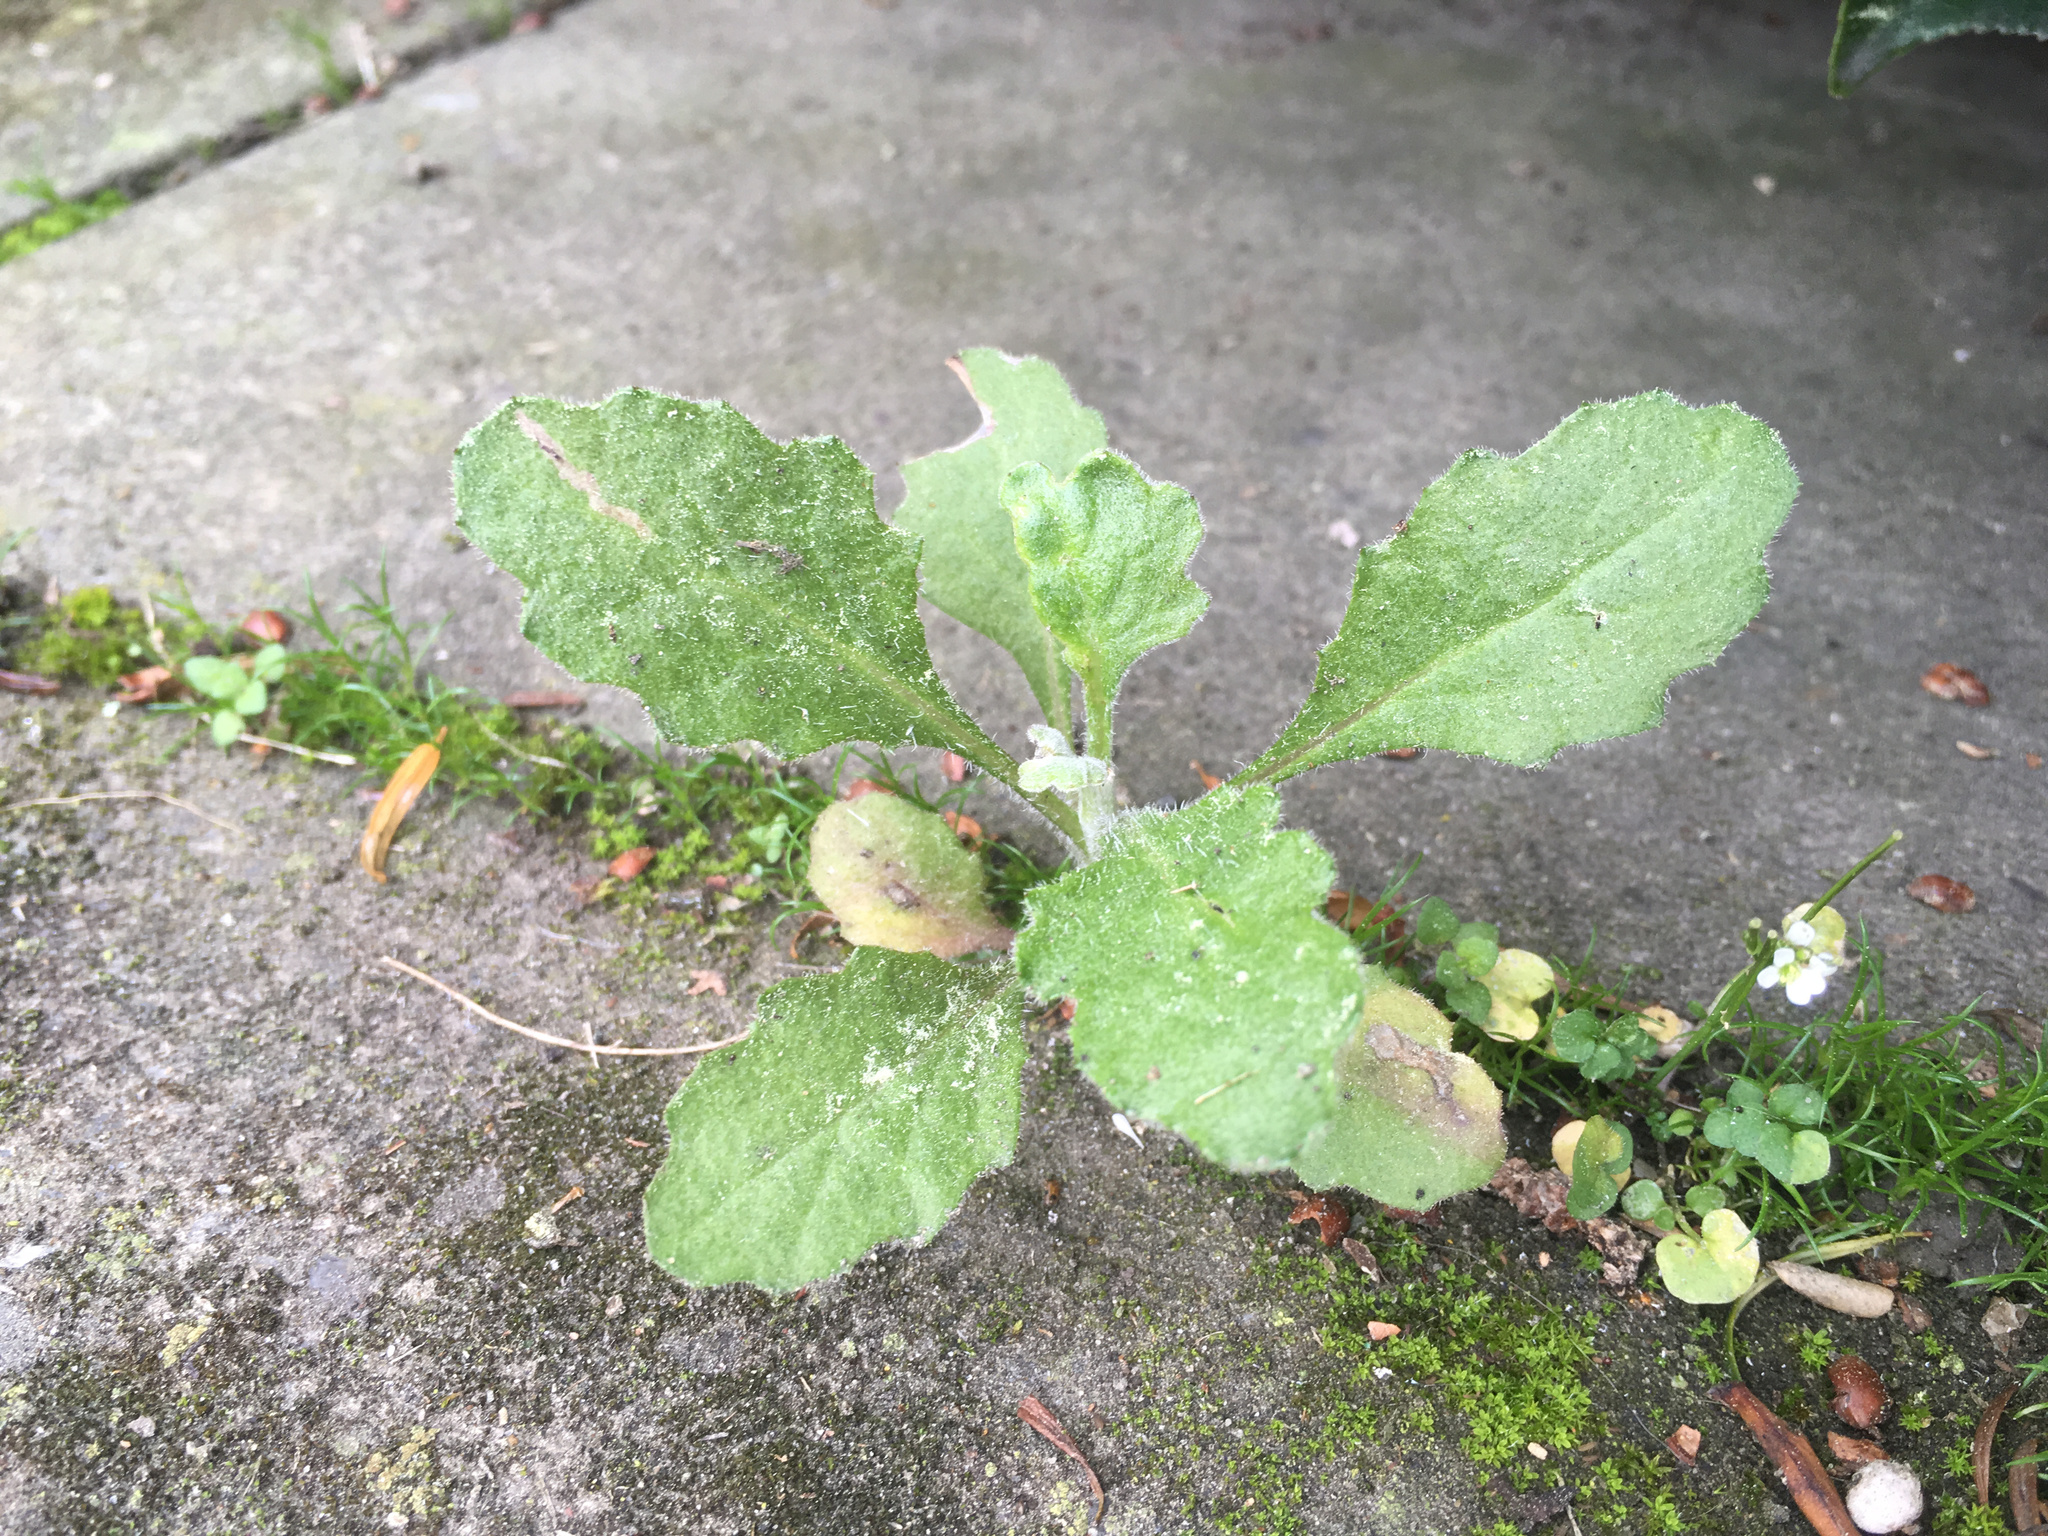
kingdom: Plantae
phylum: Tracheophyta
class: Magnoliopsida
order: Asterales
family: Asteraceae
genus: Senecio
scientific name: Senecio glomeratus
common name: Cutleaf burnweed
